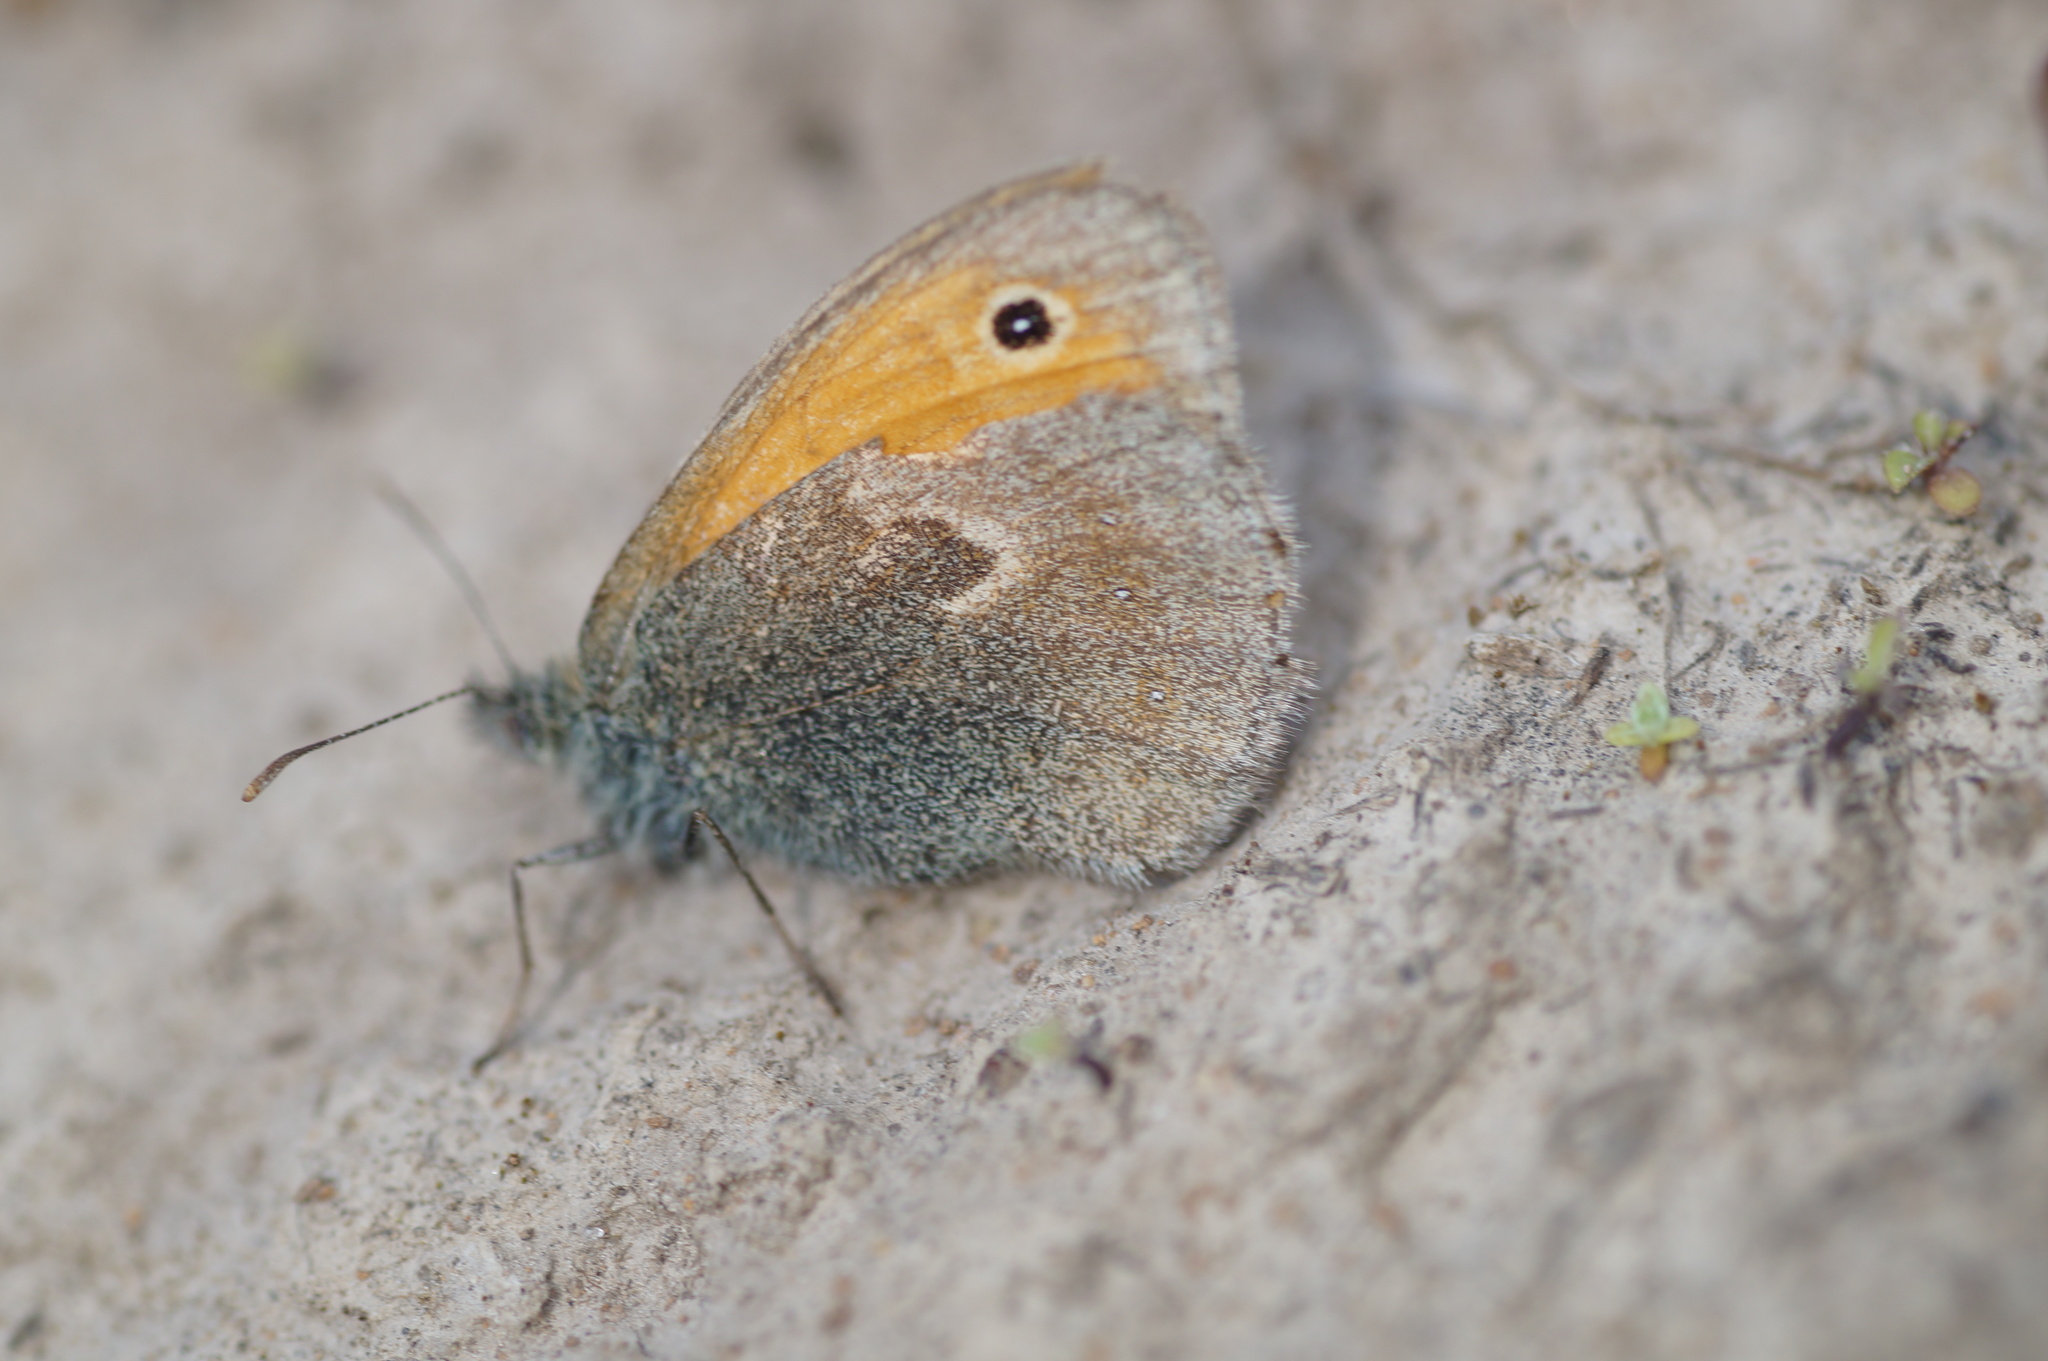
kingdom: Animalia
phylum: Arthropoda
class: Insecta
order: Lepidoptera
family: Nymphalidae
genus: Coenonympha
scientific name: Coenonympha pamphilus
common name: Small heath
